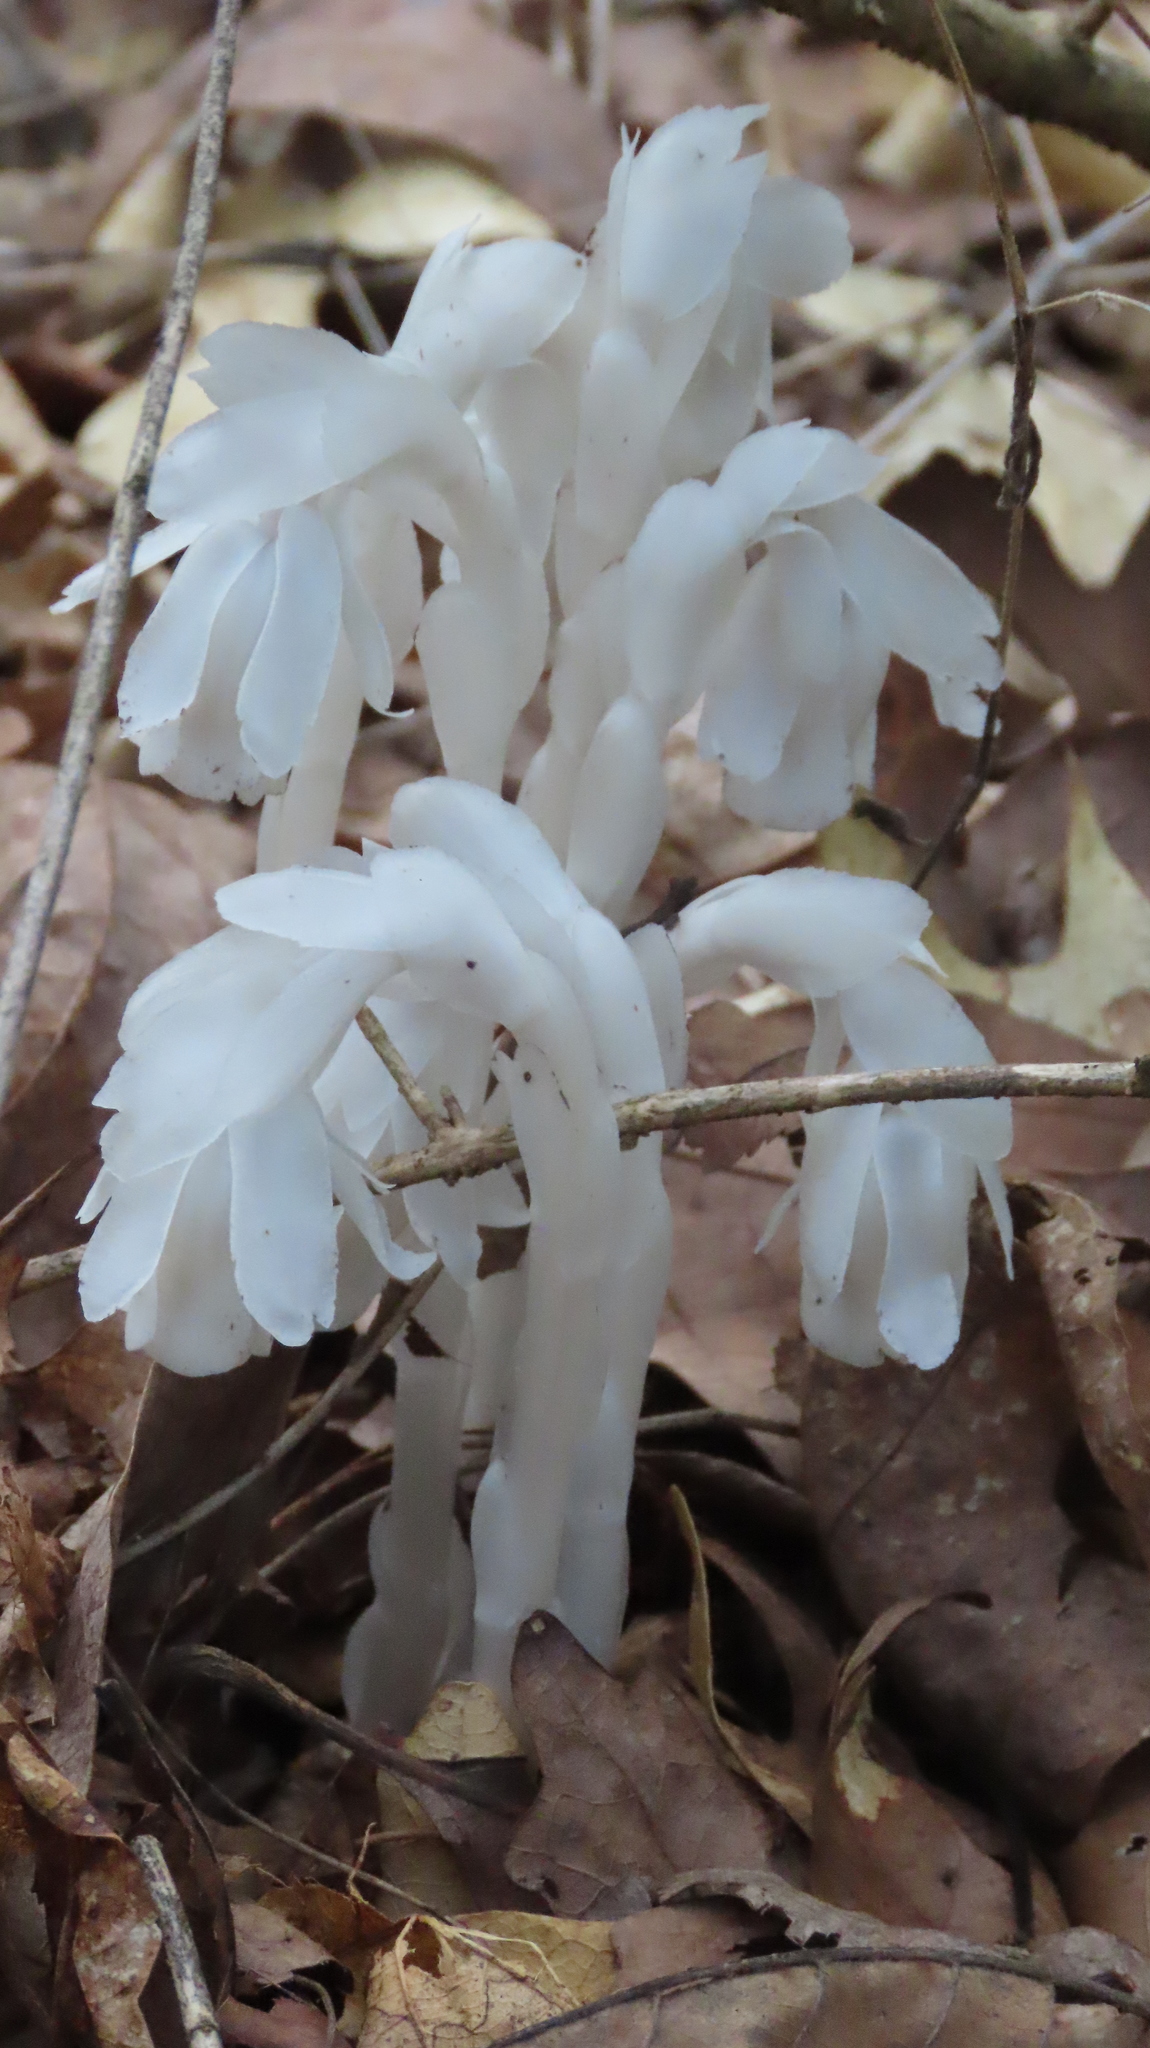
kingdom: Plantae
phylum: Tracheophyta
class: Magnoliopsida
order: Ericales
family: Ericaceae
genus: Monotropa
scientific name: Monotropa uniflora
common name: Convulsion root
